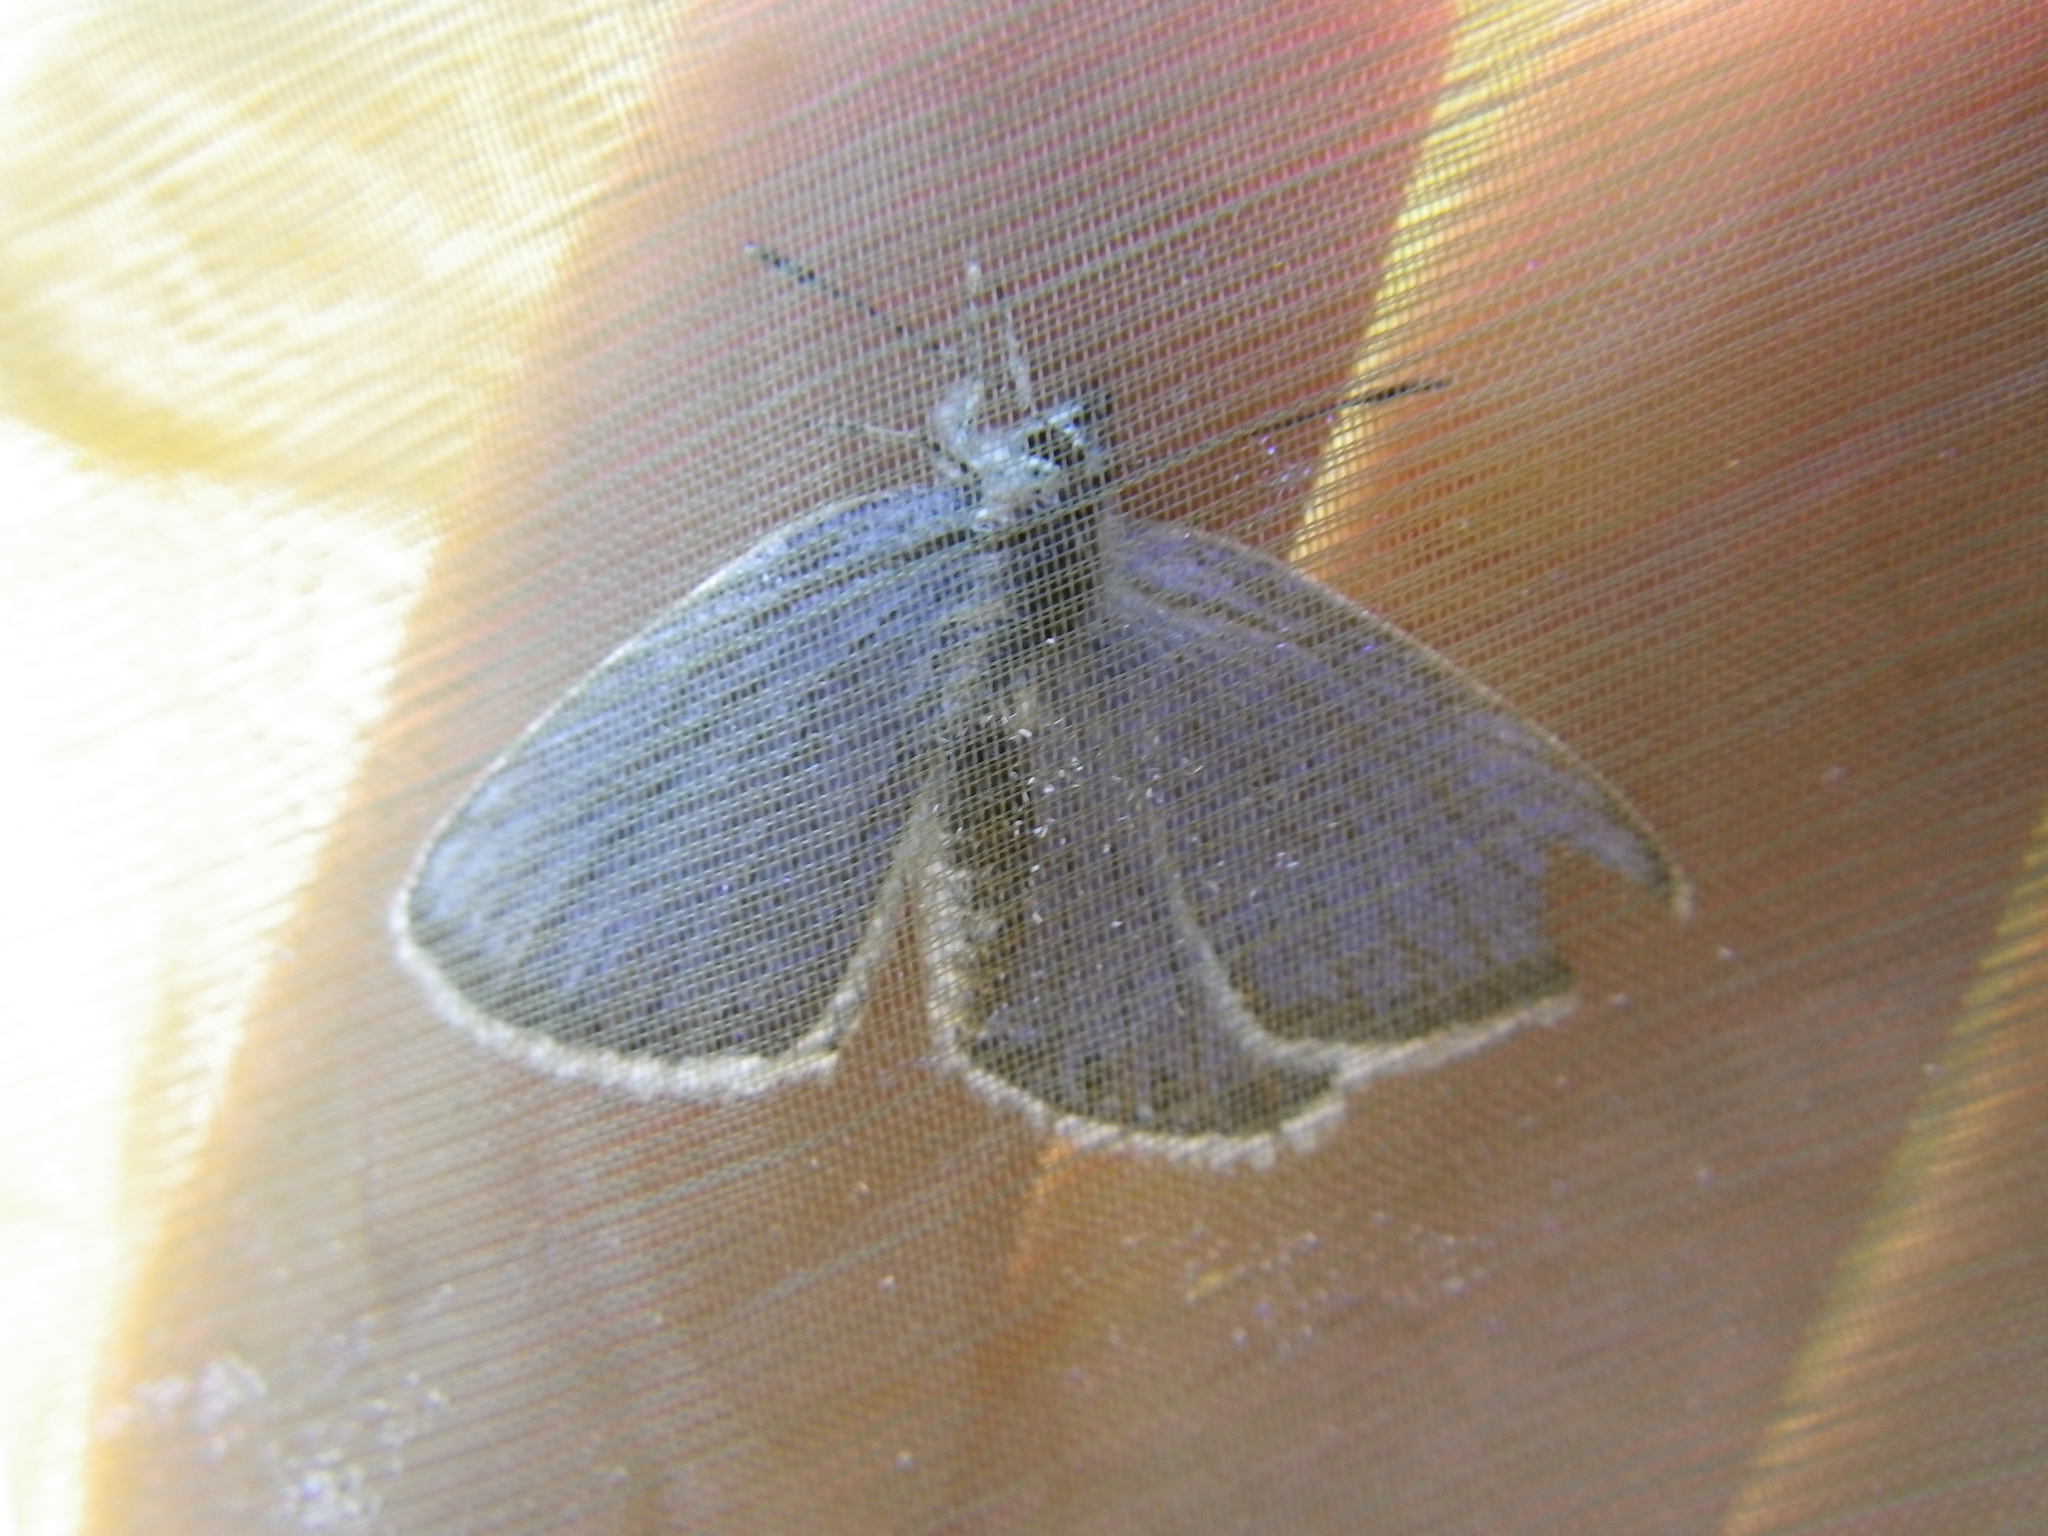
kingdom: Animalia
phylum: Arthropoda
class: Insecta
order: Lepidoptera
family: Lycaenidae
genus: Plebejus
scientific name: Plebejus argus
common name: Silver-studded blue
